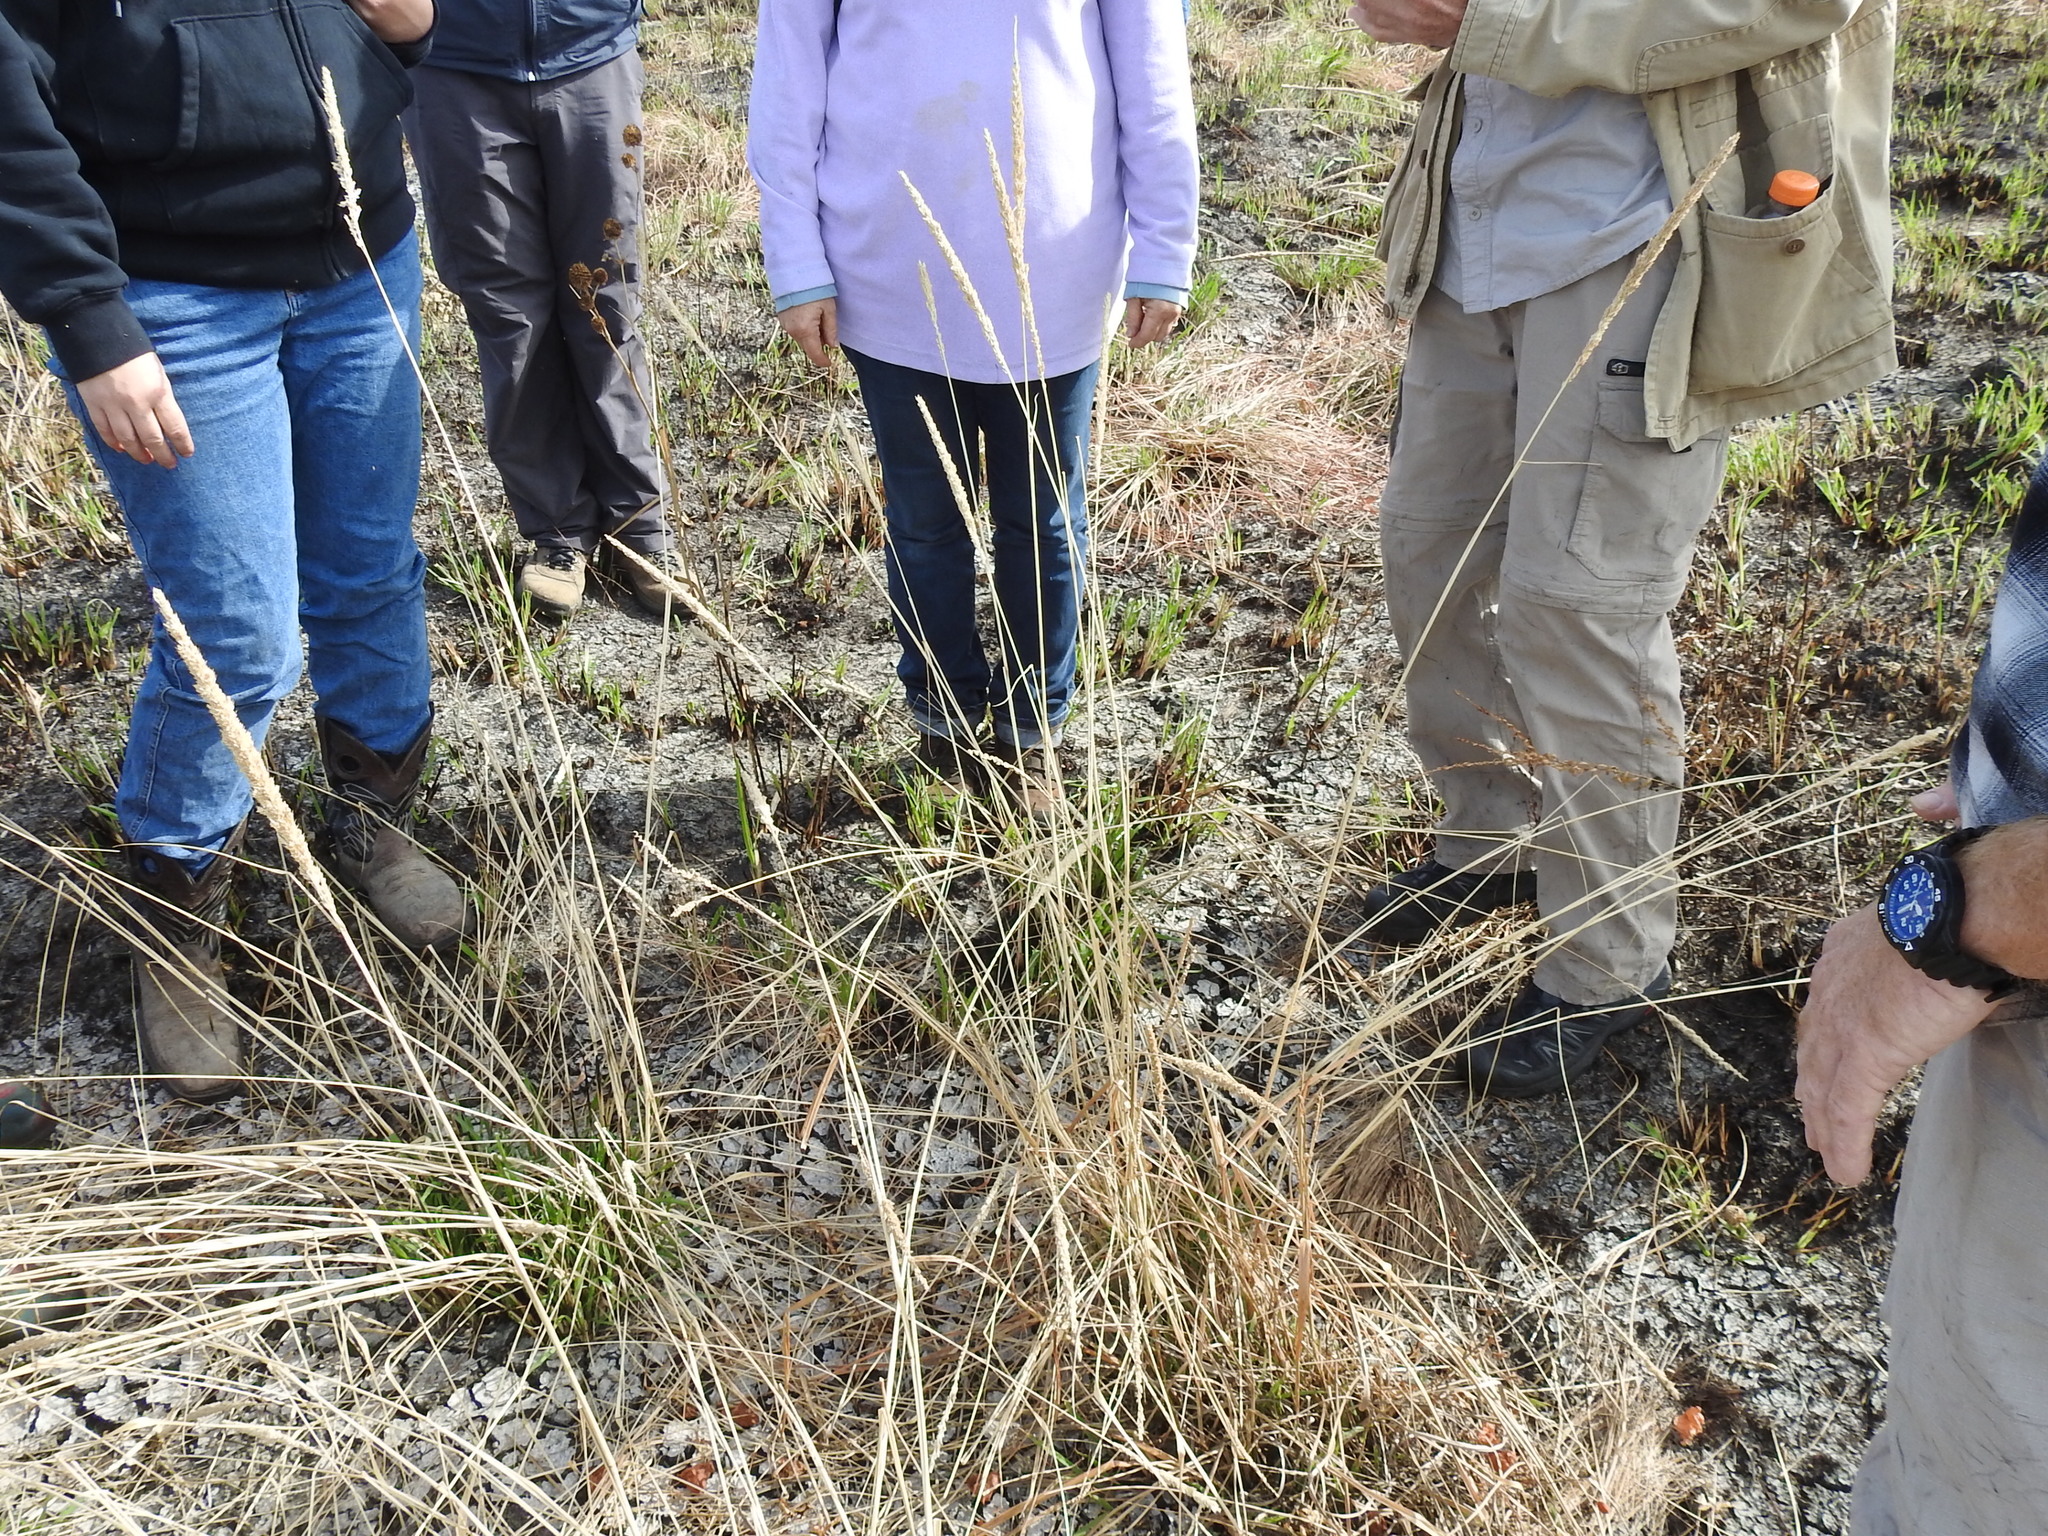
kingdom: Plantae
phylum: Tracheophyta
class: Liliopsida
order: Poales
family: Poaceae
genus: Tridens
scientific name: Tridens strictus
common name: Long-spike tridens
